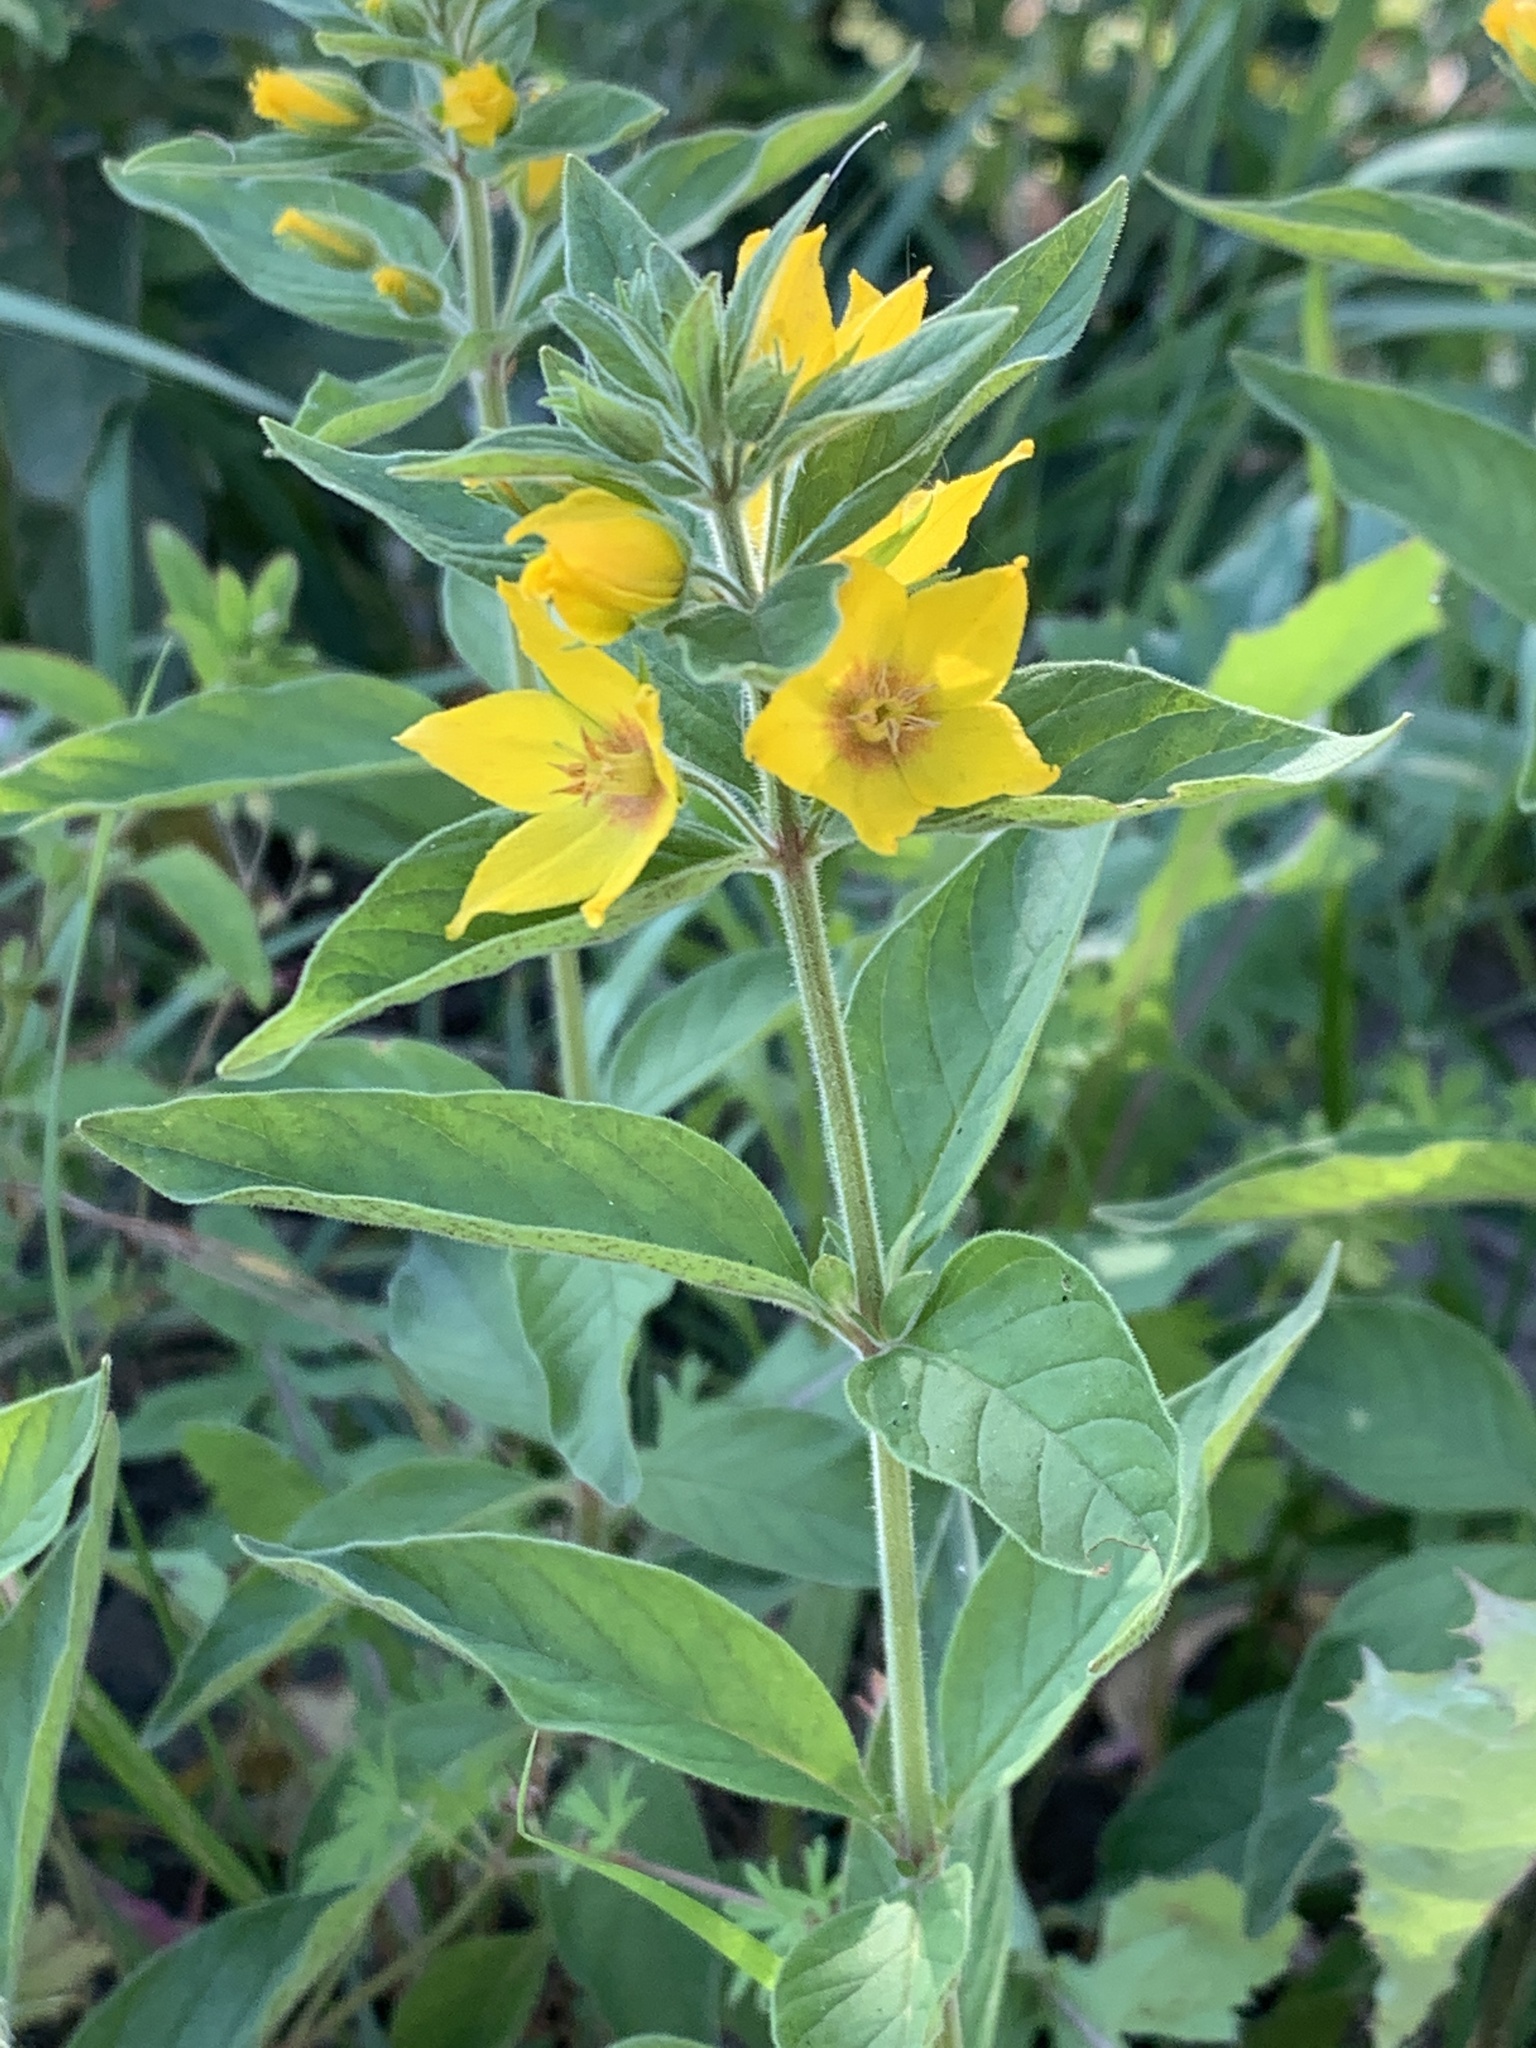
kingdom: Plantae
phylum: Tracheophyta
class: Magnoliopsida
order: Ericales
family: Primulaceae
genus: Lysimachia
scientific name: Lysimachia punctata
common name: Dotted loosestrife
